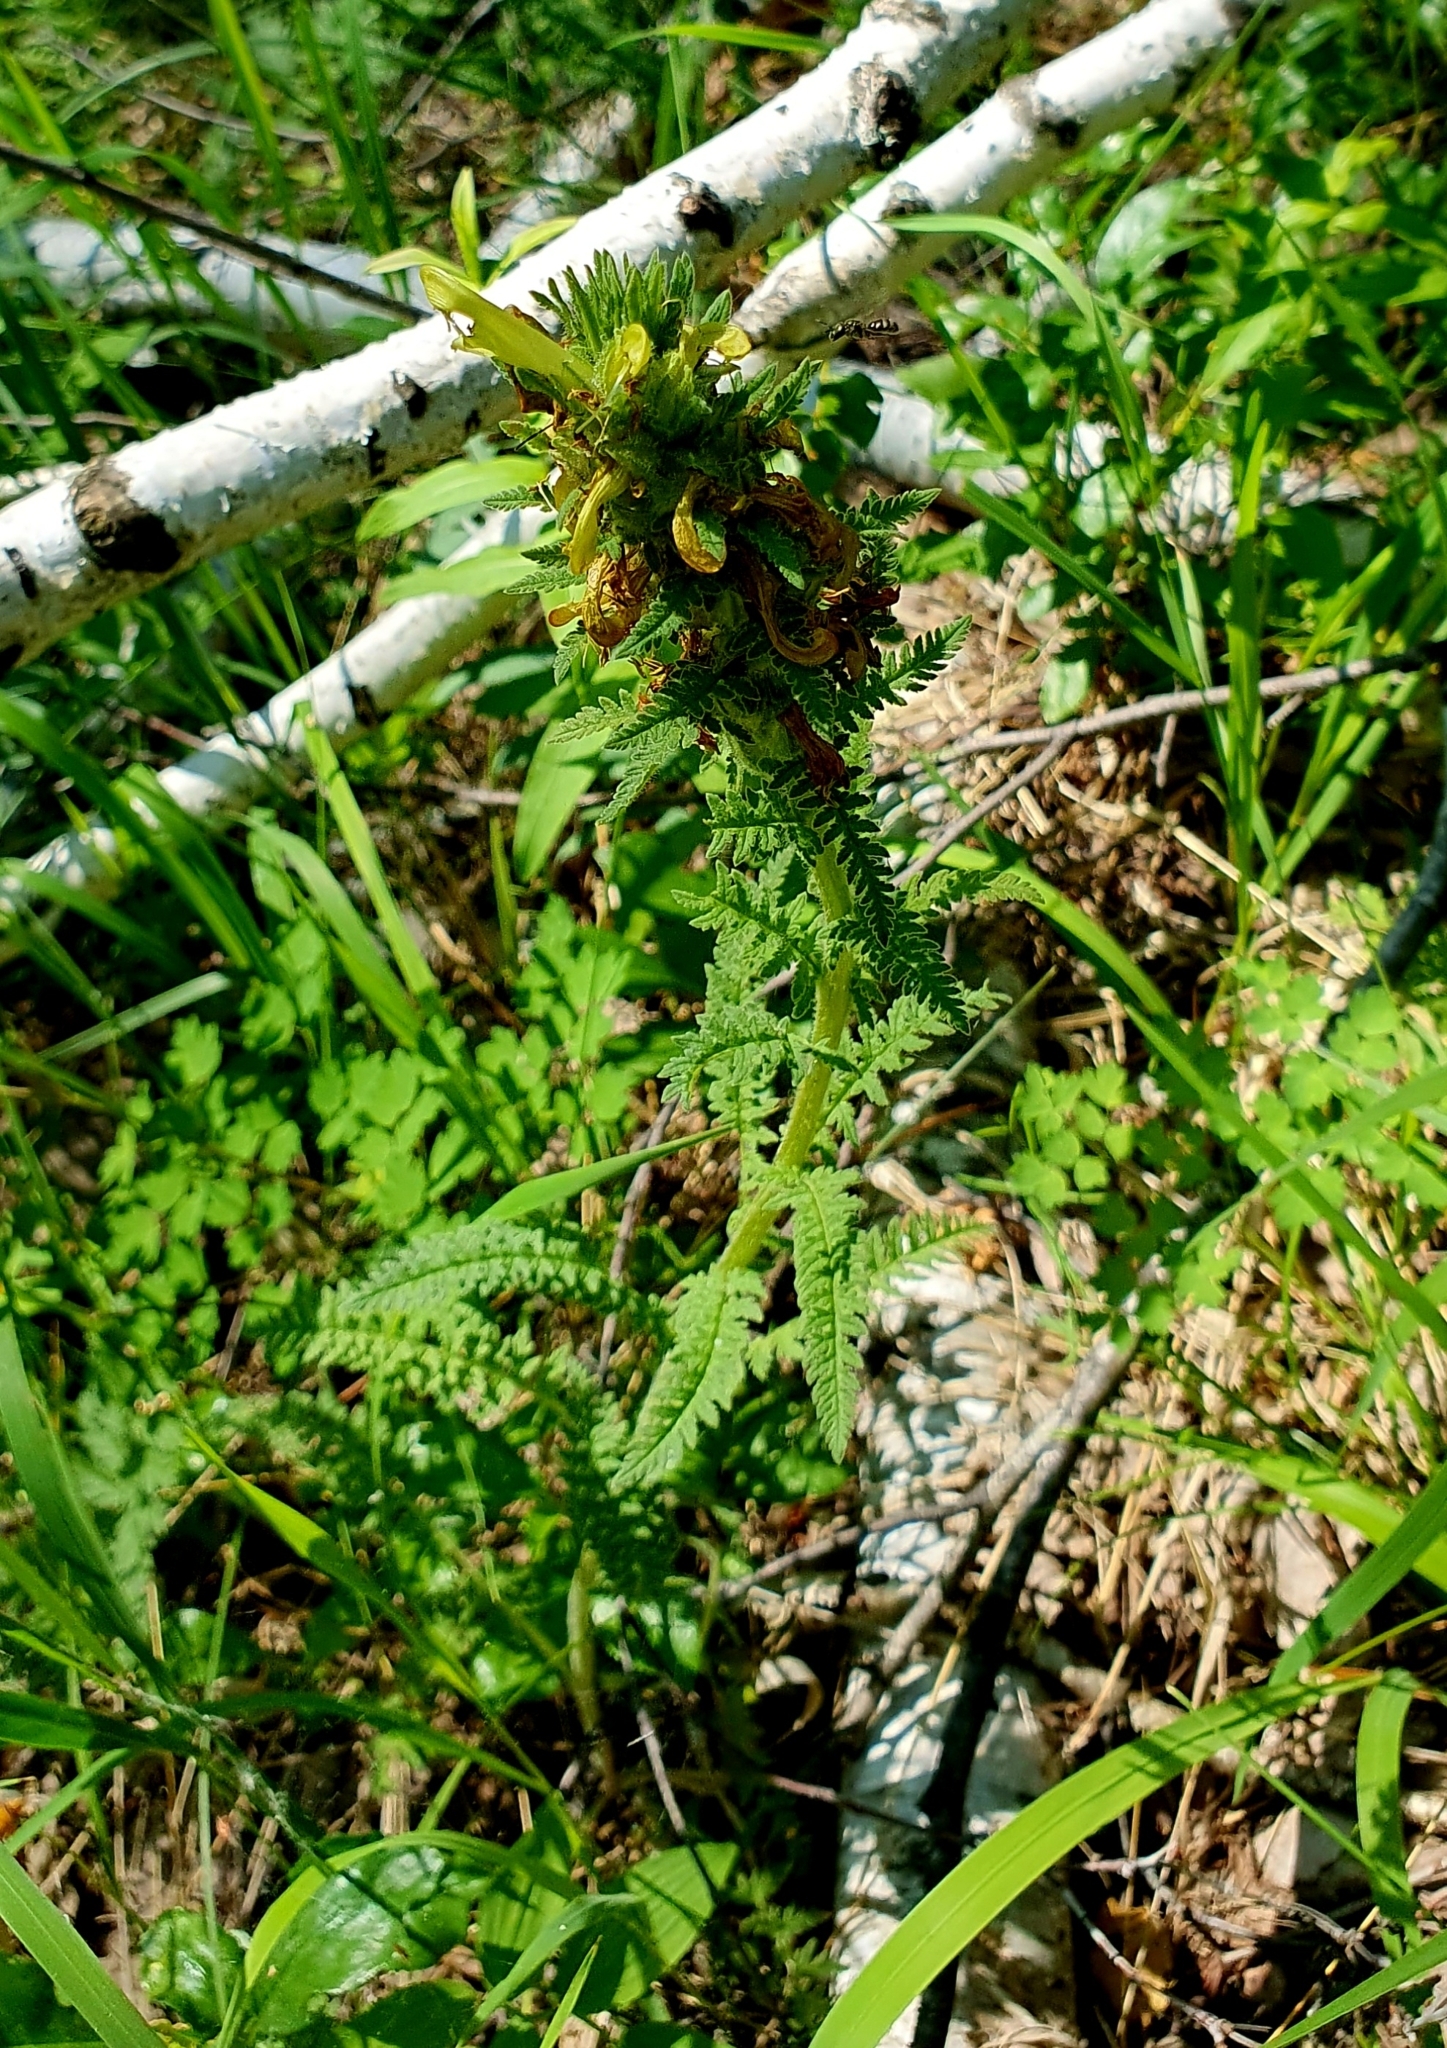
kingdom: Plantae
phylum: Tracheophyta
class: Magnoliopsida
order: Lamiales
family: Orobanchaceae
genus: Pedicularis
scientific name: Pedicularis kaufmannii
